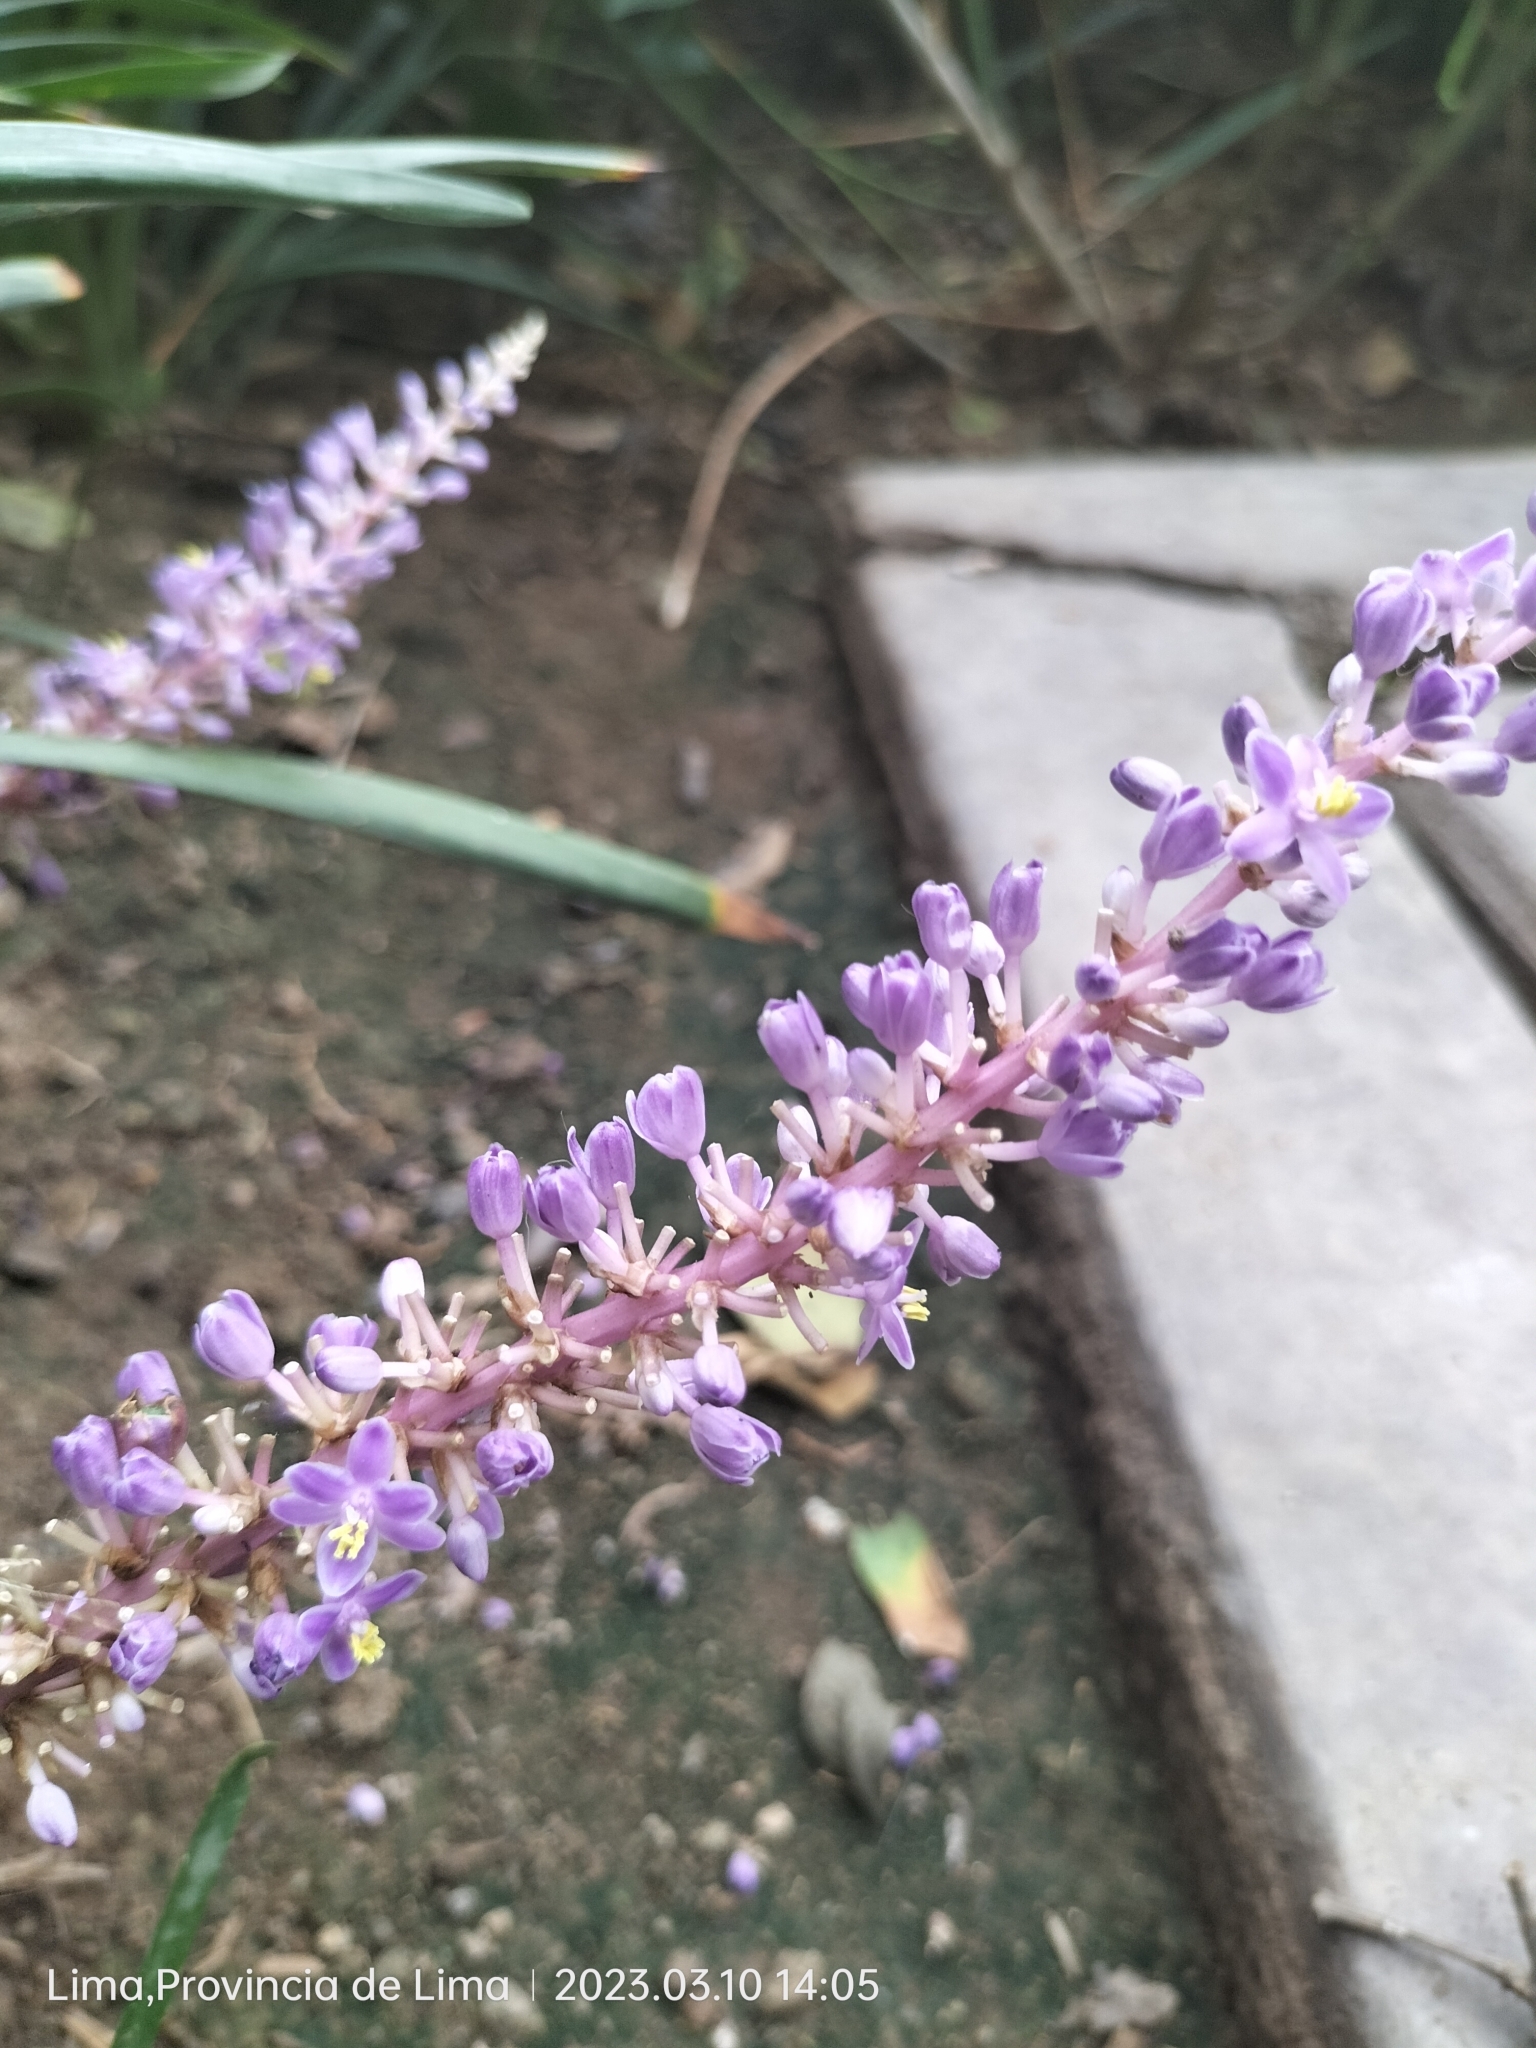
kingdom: Plantae
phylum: Tracheophyta
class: Liliopsida
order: Asparagales
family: Asparagaceae
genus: Liriope
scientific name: Liriope muscari
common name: Big blue lilyturf
